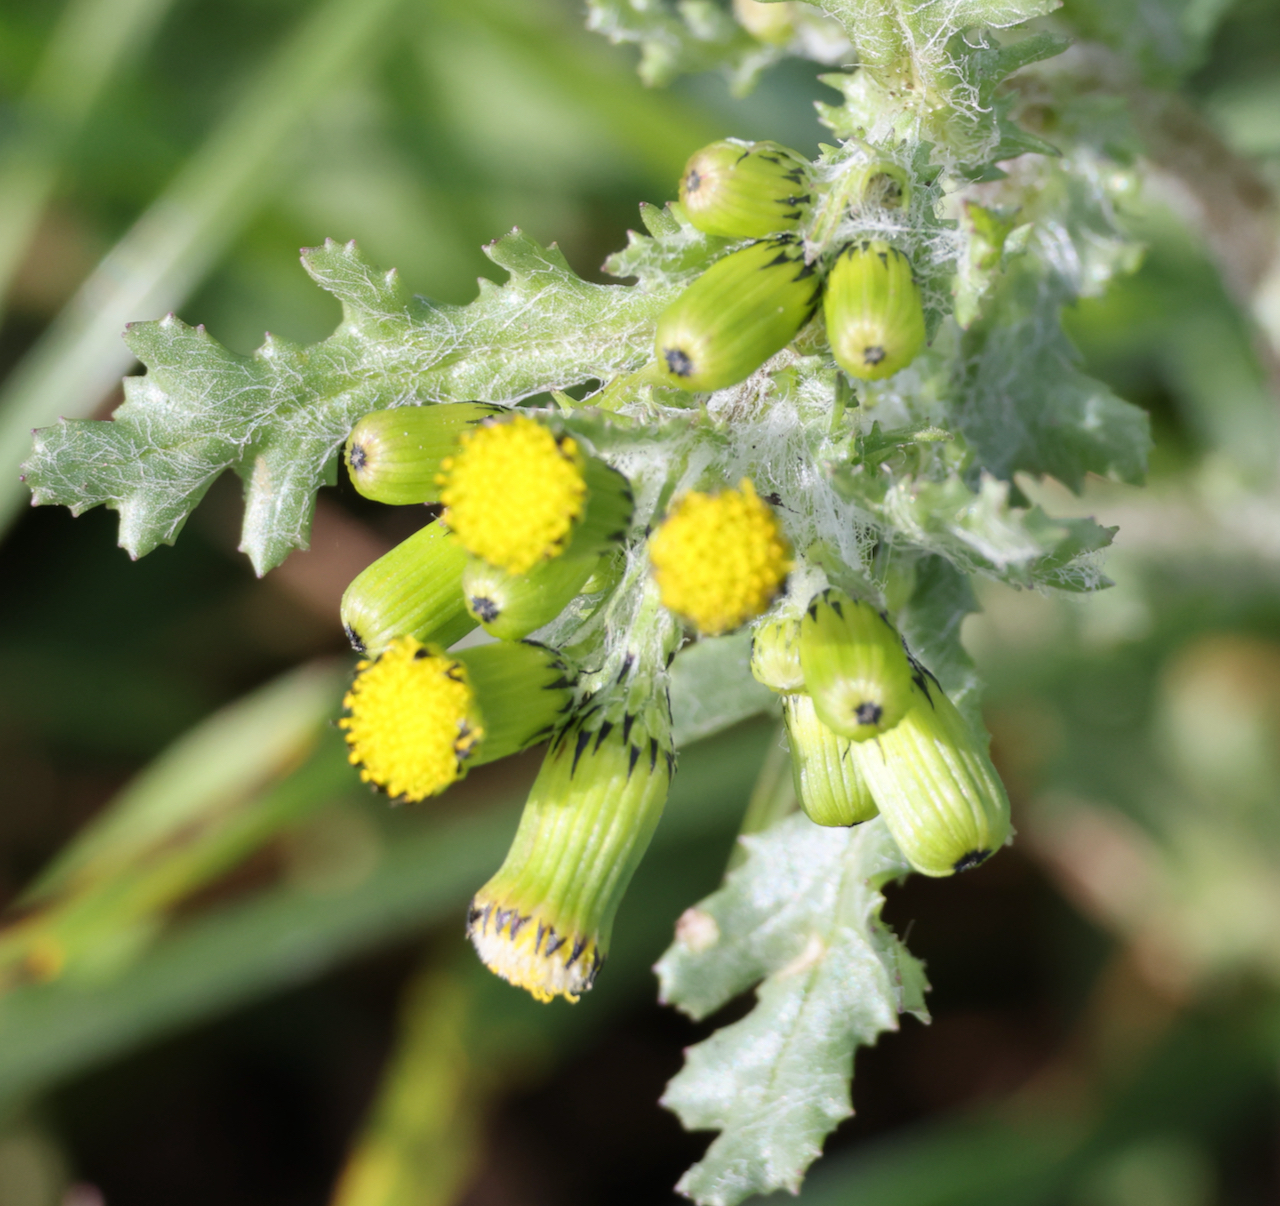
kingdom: Plantae
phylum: Tracheophyta
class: Magnoliopsida
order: Asterales
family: Asteraceae
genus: Senecio
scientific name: Senecio vulgaris
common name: Old-man-in-the-spring
